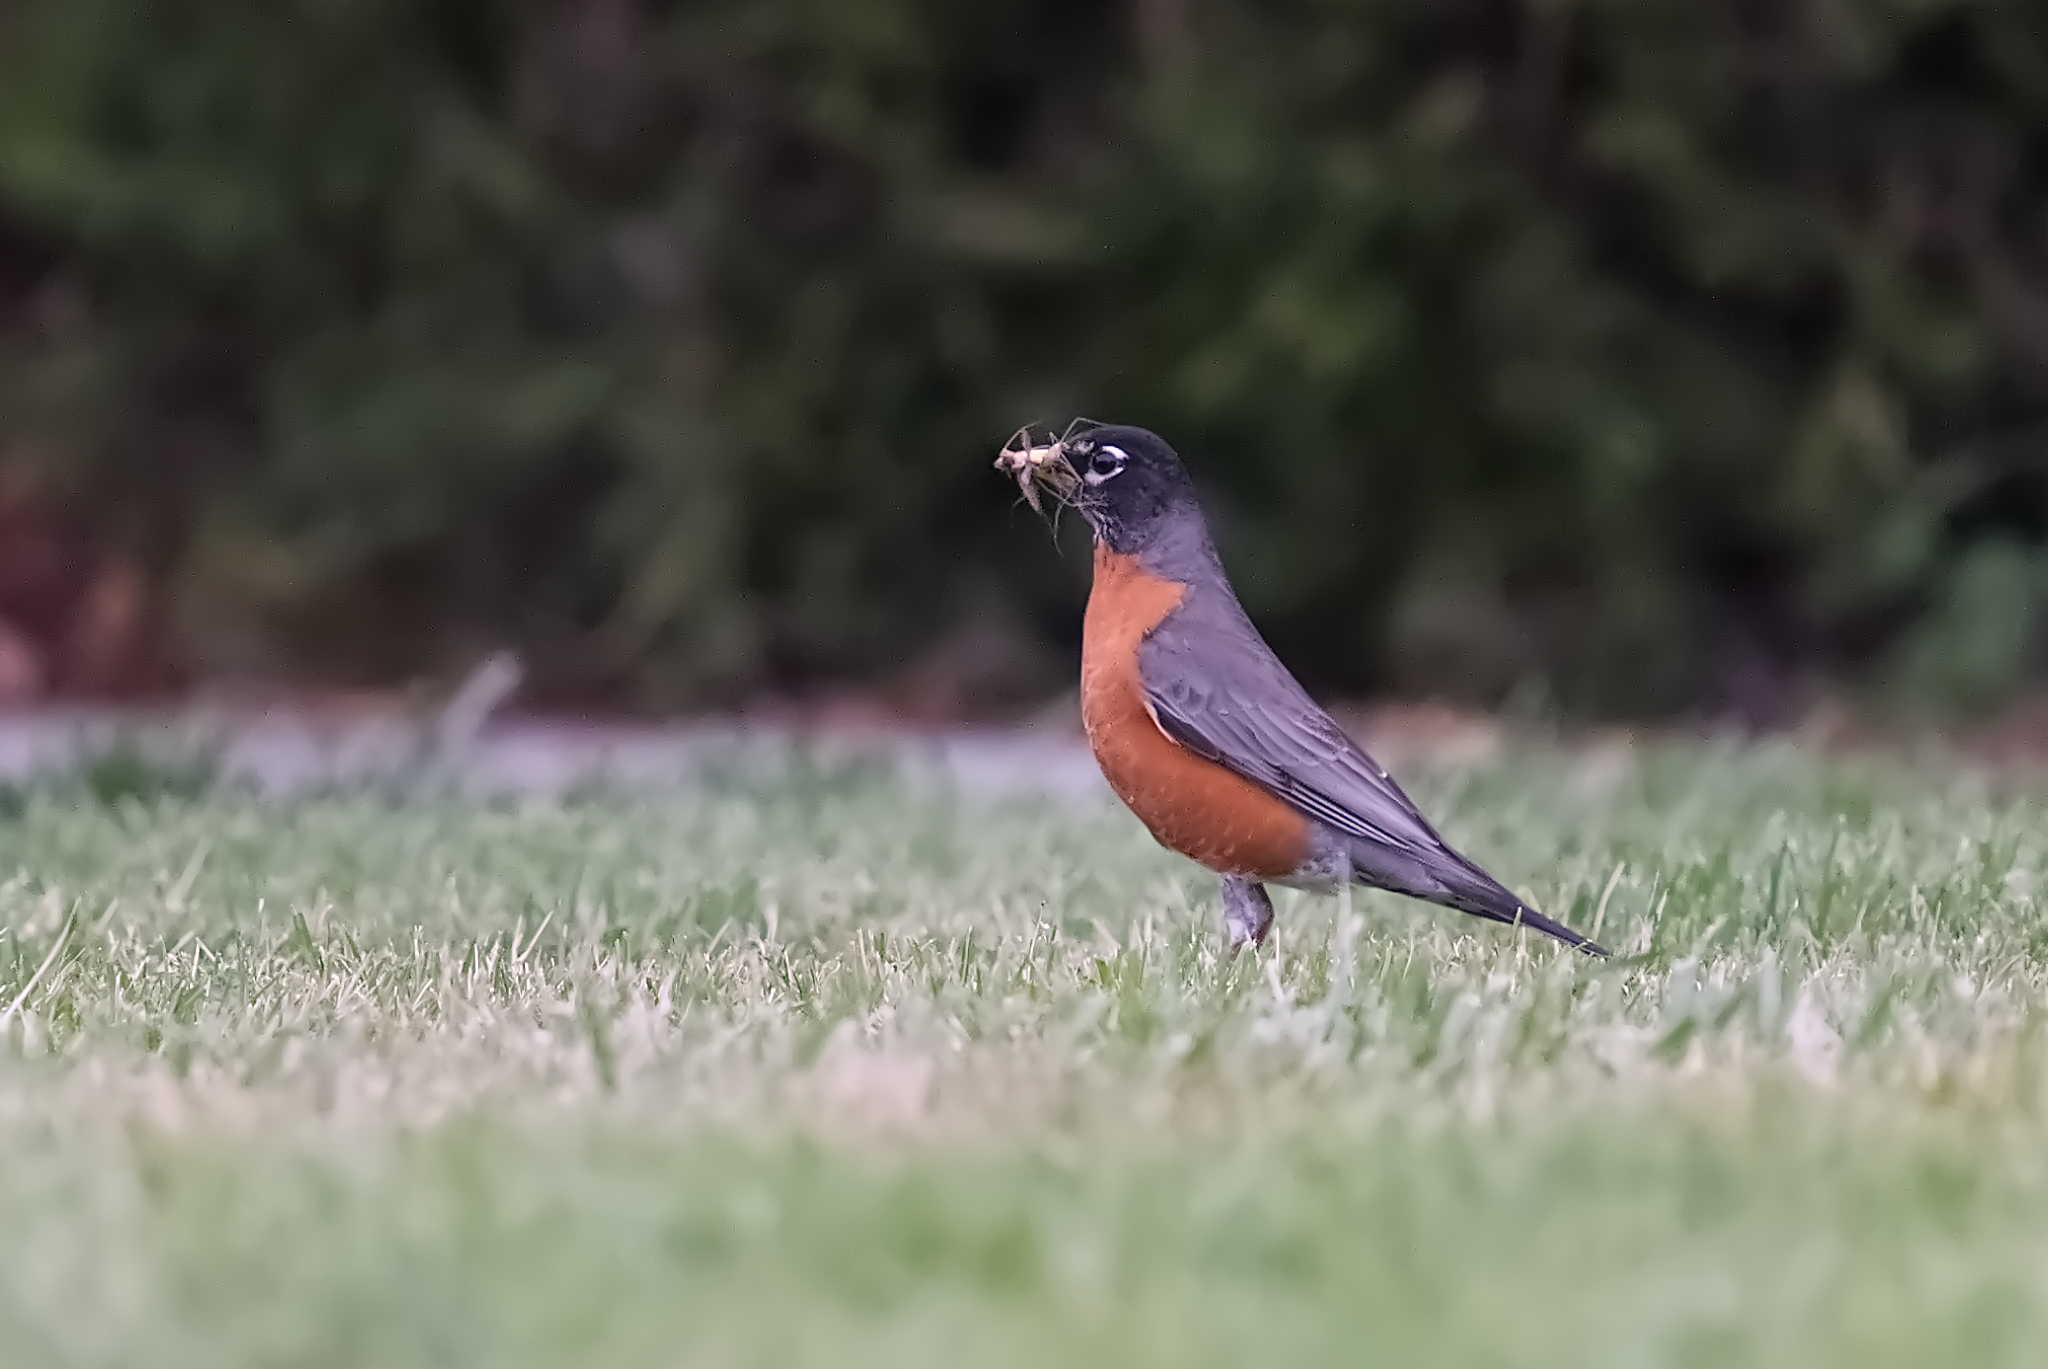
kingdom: Animalia
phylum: Chordata
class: Aves
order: Passeriformes
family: Turdidae
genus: Turdus
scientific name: Turdus migratorius
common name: American robin
